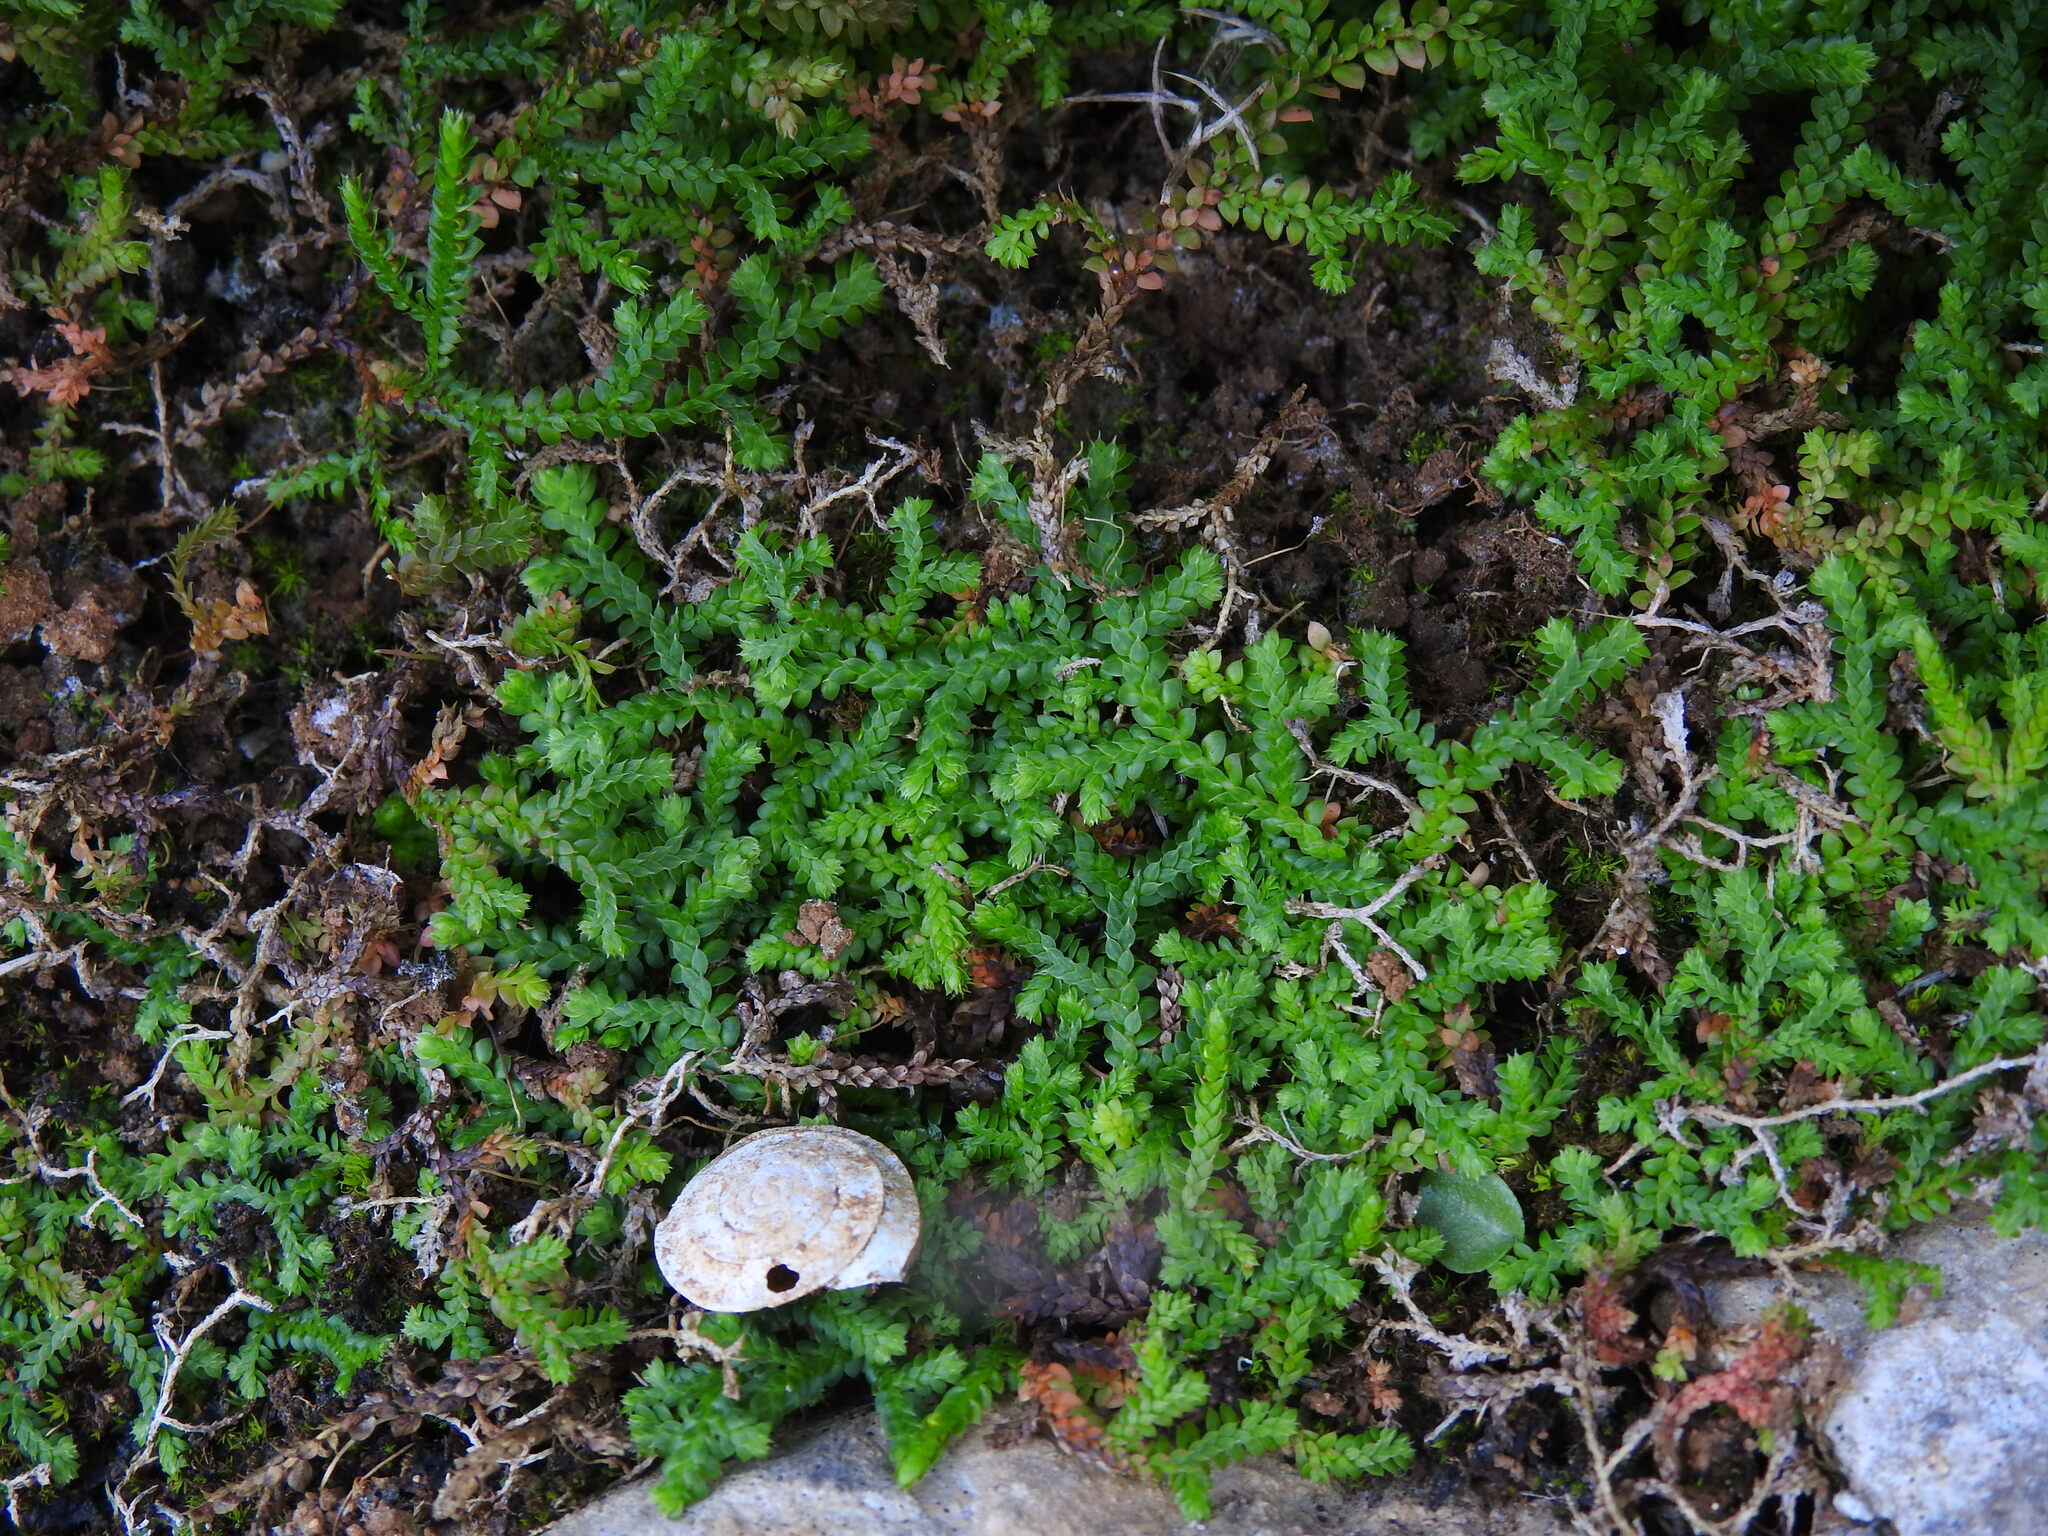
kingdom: Plantae
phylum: Tracheophyta
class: Lycopodiopsida
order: Selaginellales
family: Selaginellaceae
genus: Selaginella
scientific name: Selaginella denticulata
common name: Toothed-leaved clubmoss
